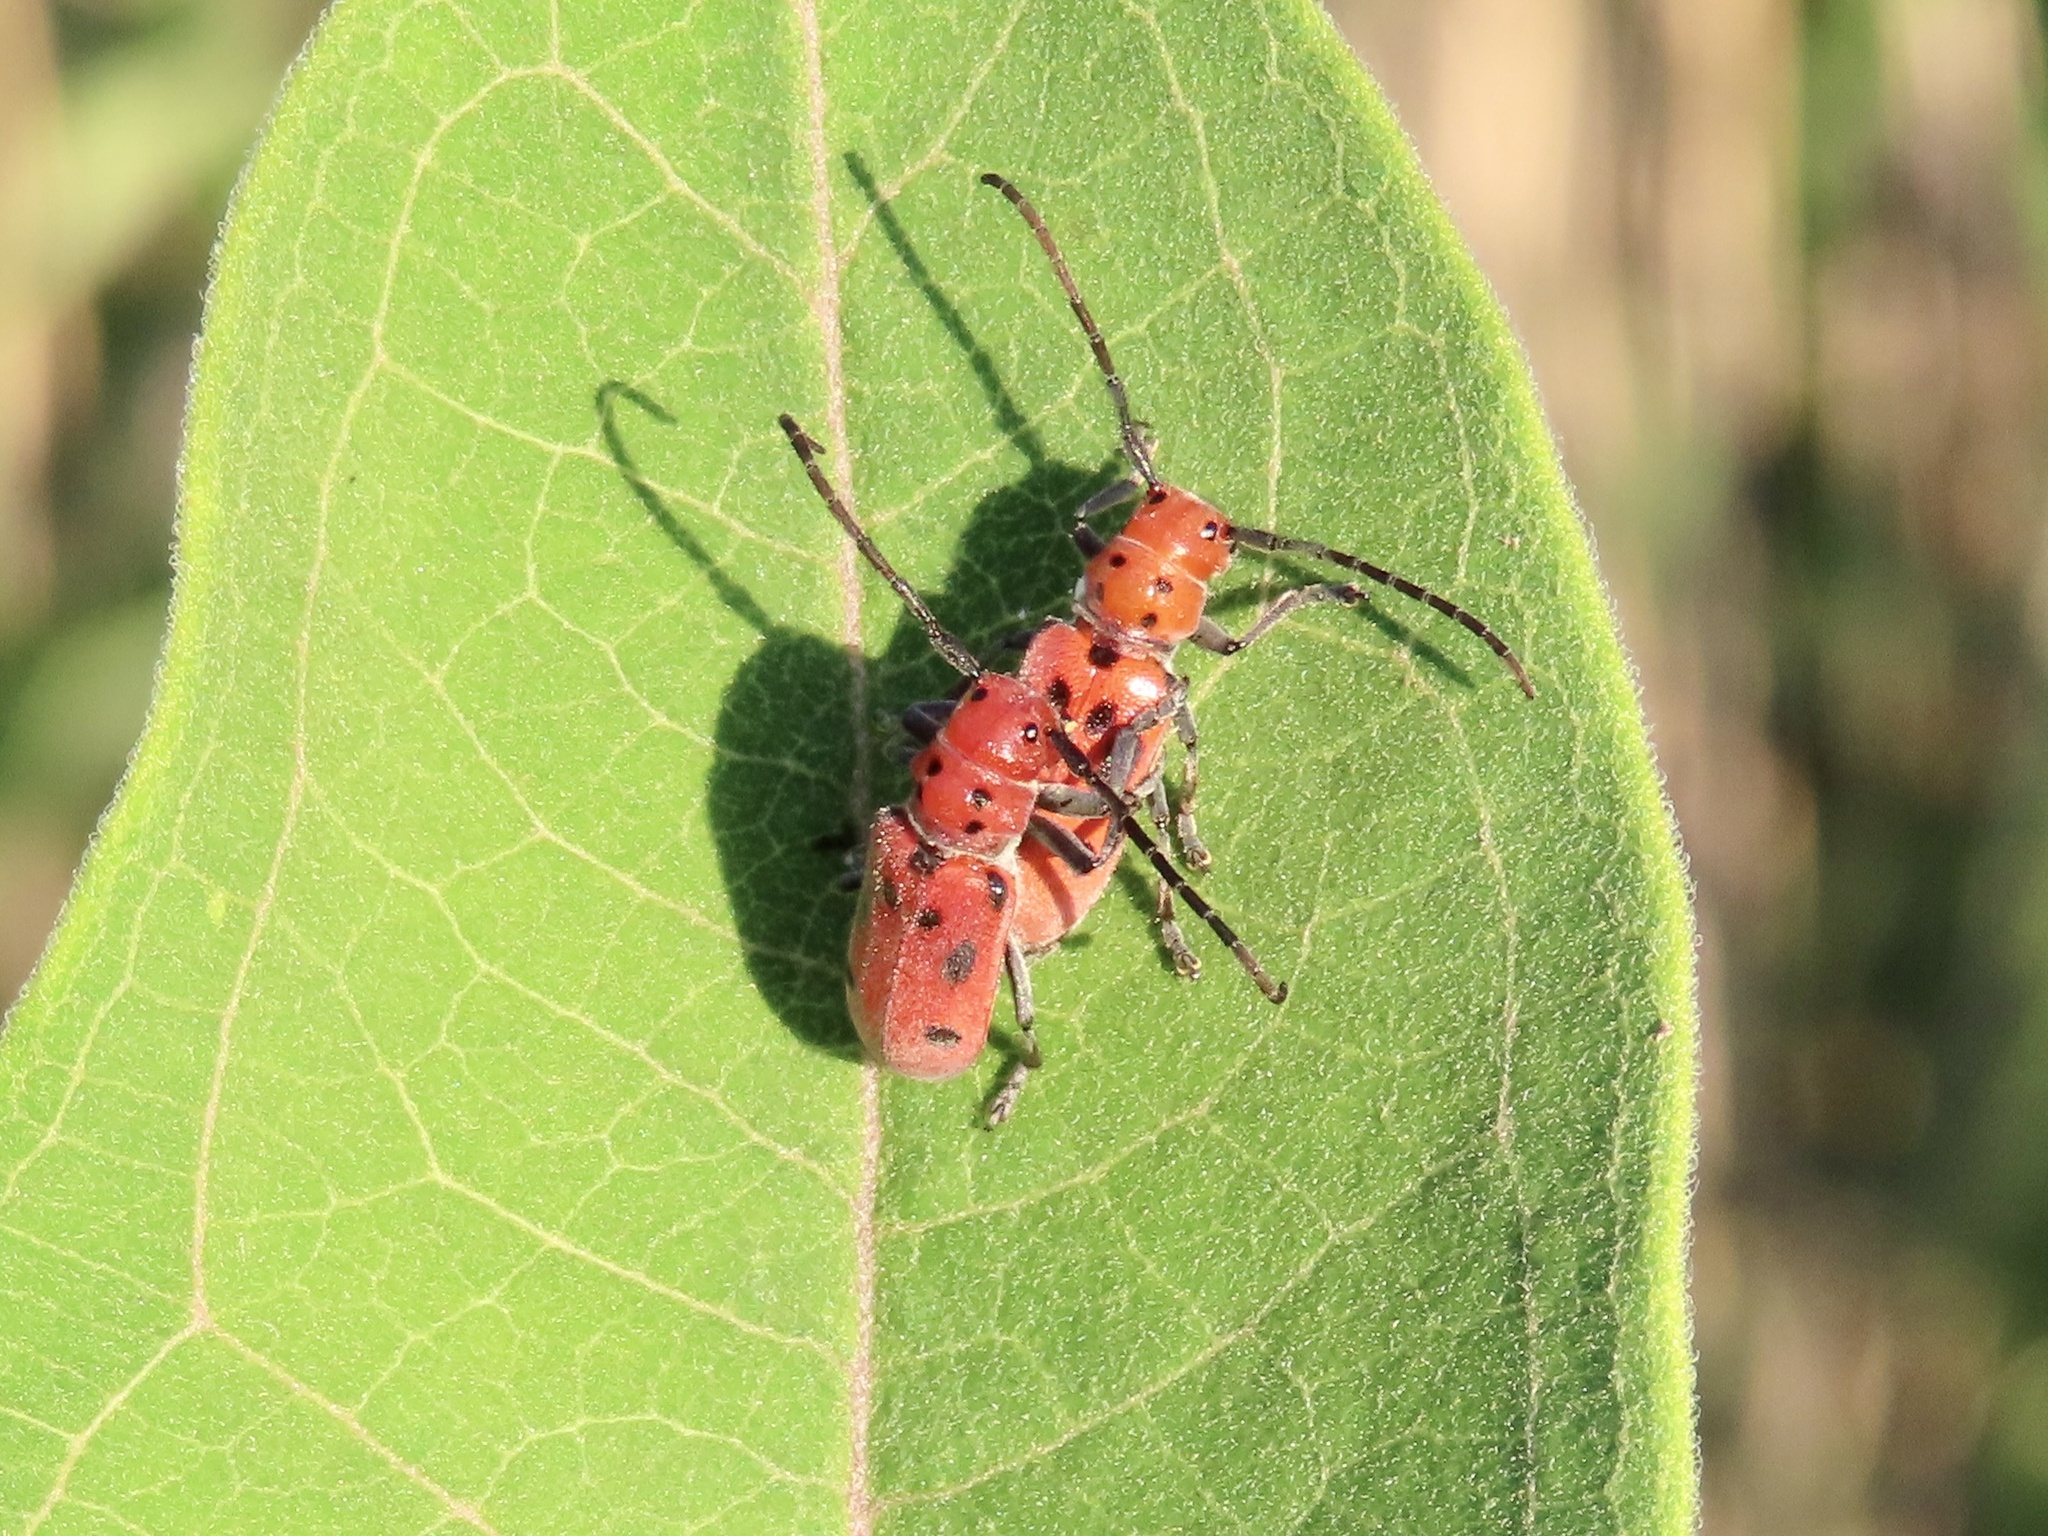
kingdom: Animalia
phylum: Arthropoda
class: Insecta
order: Coleoptera
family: Cerambycidae
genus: Tetraopes
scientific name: Tetraopes tetrophthalmus
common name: Red milkweed beetle
